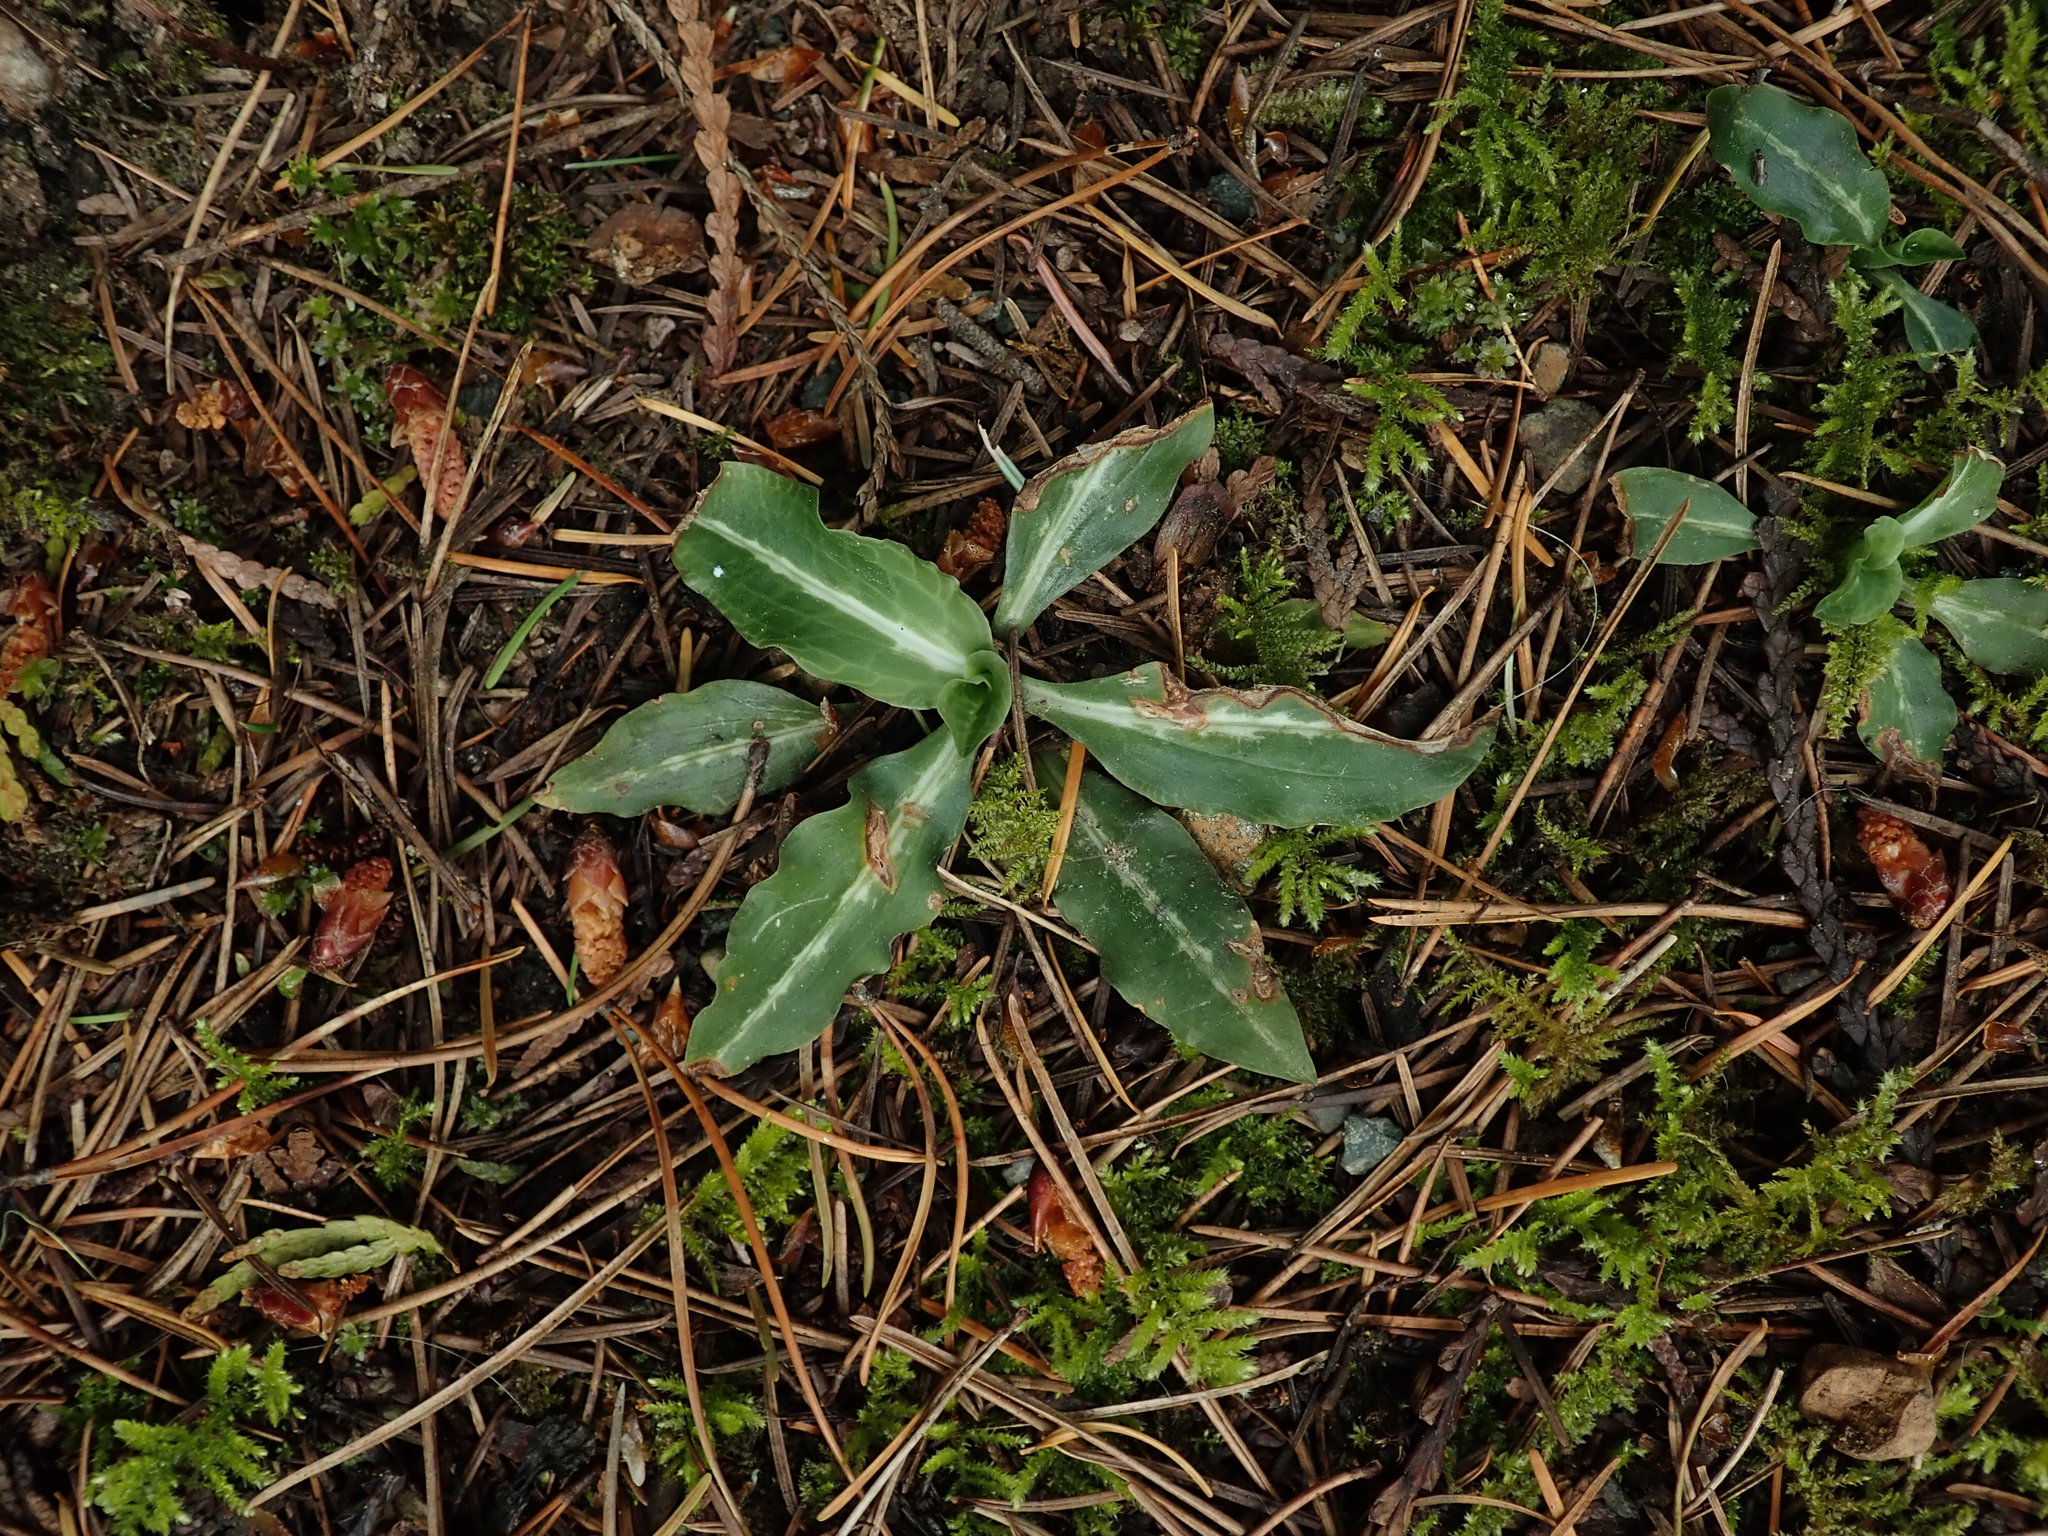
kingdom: Plantae
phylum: Tracheophyta
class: Liliopsida
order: Asparagales
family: Orchidaceae
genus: Goodyera
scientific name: Goodyera oblongifolia
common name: Giant rattlesnake-plantain
